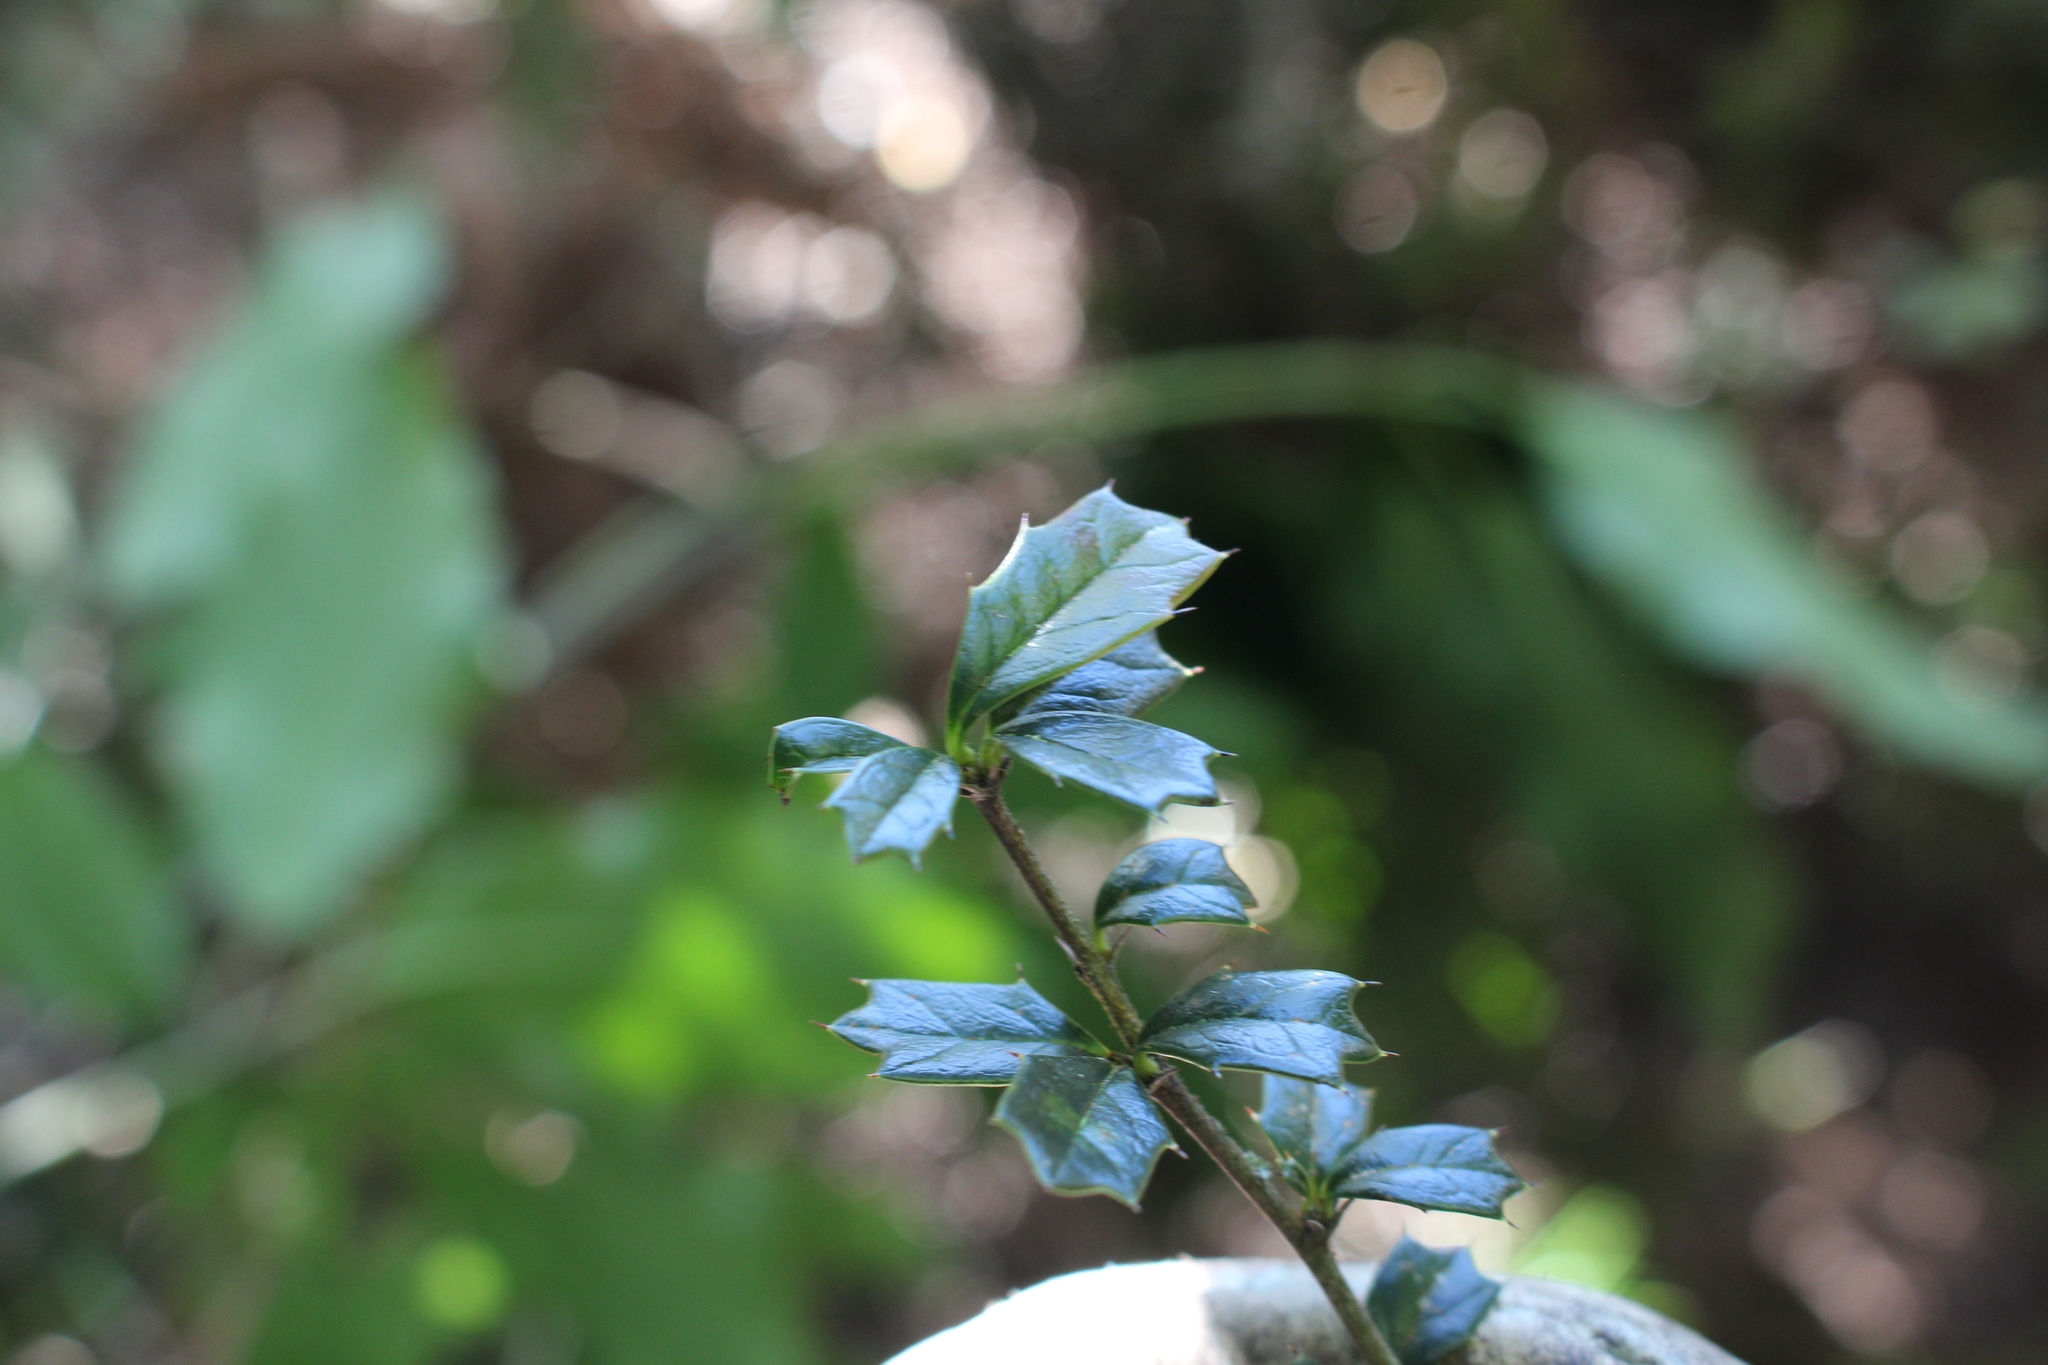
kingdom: Plantae
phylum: Tracheophyta
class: Magnoliopsida
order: Ranunculales
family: Berberidaceae
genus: Berberis
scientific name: Berberis darwinii
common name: Darwin's barberry
